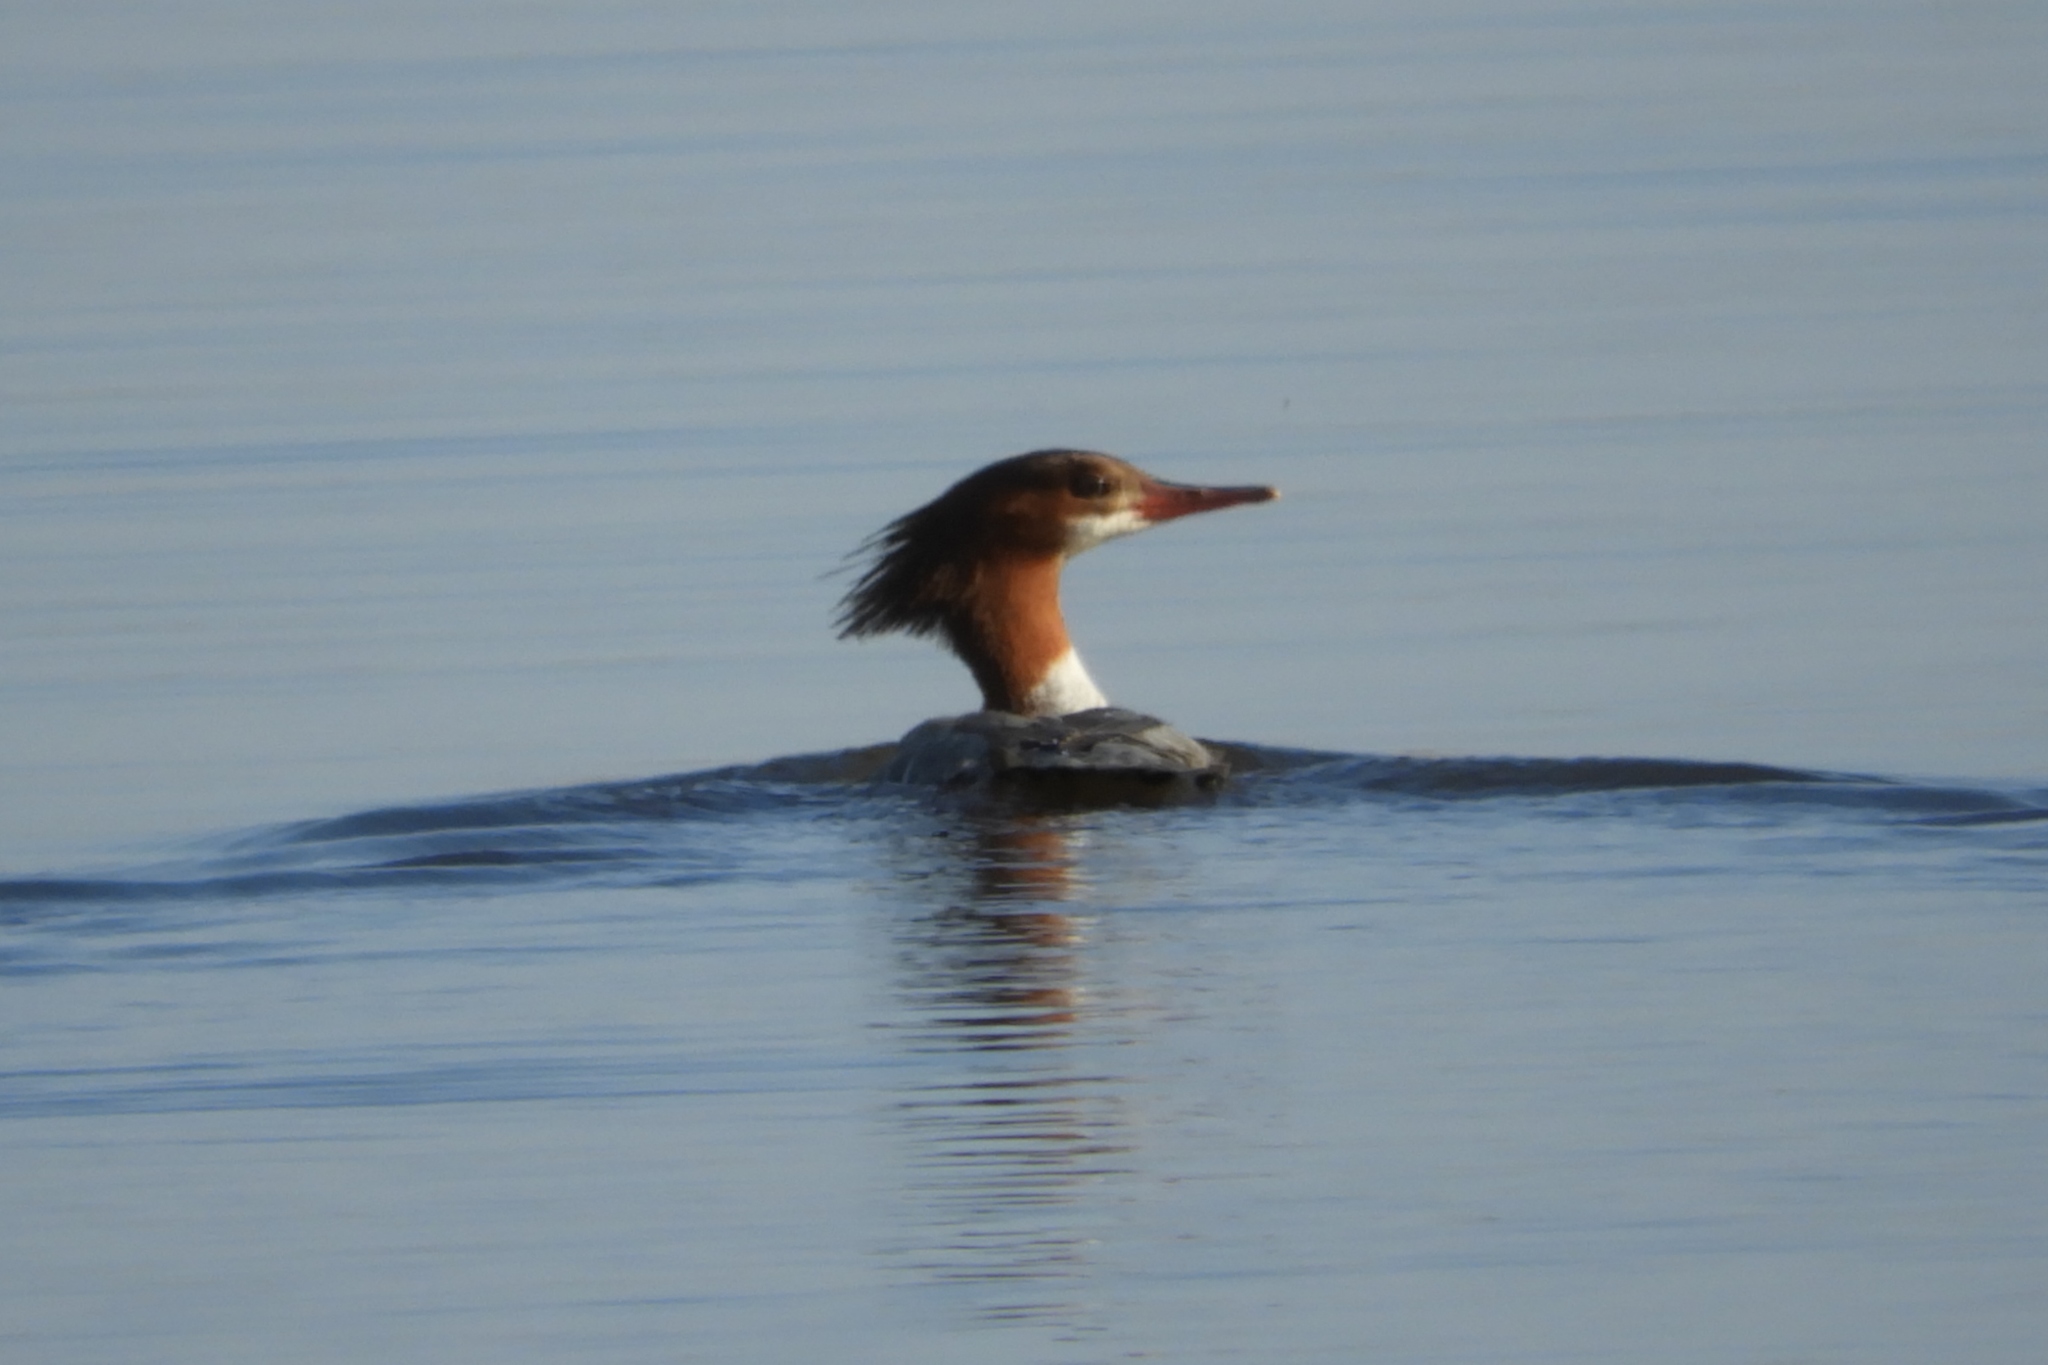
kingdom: Animalia
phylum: Chordata
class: Aves
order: Anseriformes
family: Anatidae
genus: Mergus
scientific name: Mergus merganser
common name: Common merganser
